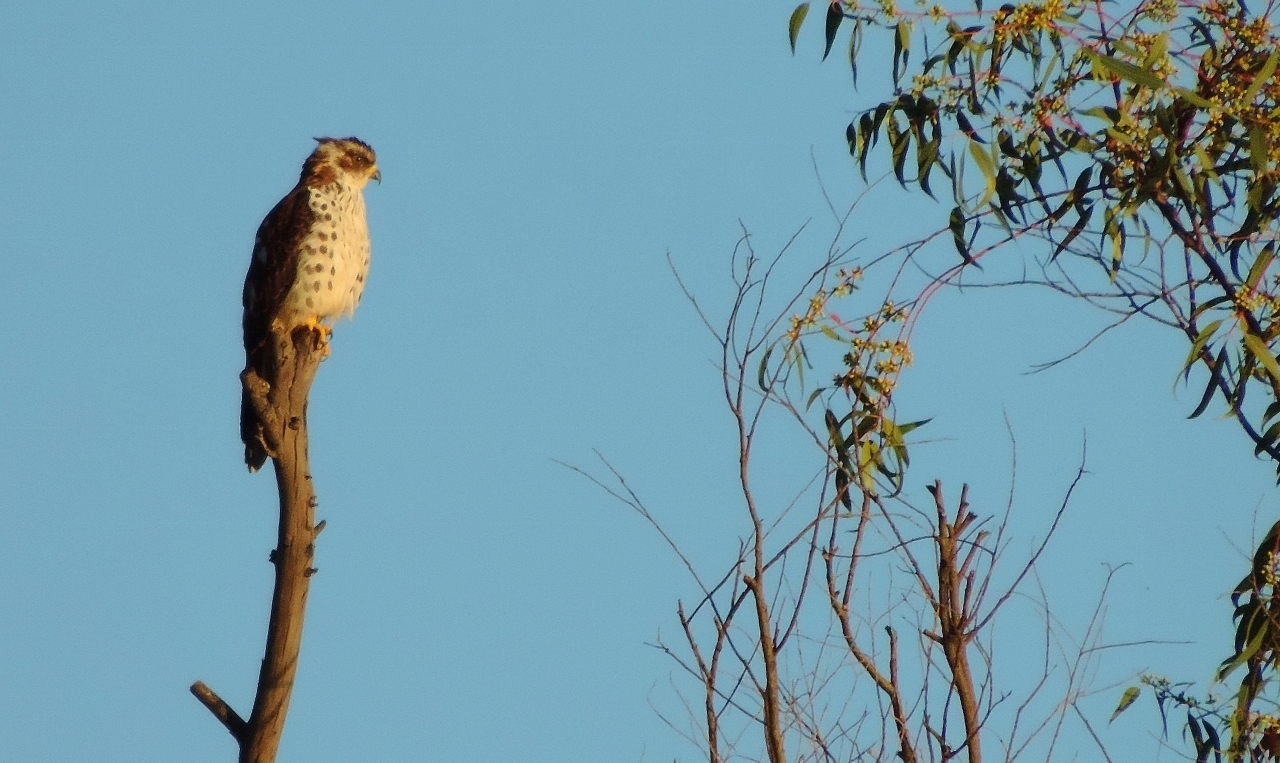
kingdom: Animalia
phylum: Chordata
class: Aves
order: Accipitriformes
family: Accipitridae
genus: Aviceda
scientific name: Aviceda cuculoides
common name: African cuckoo-hawk
